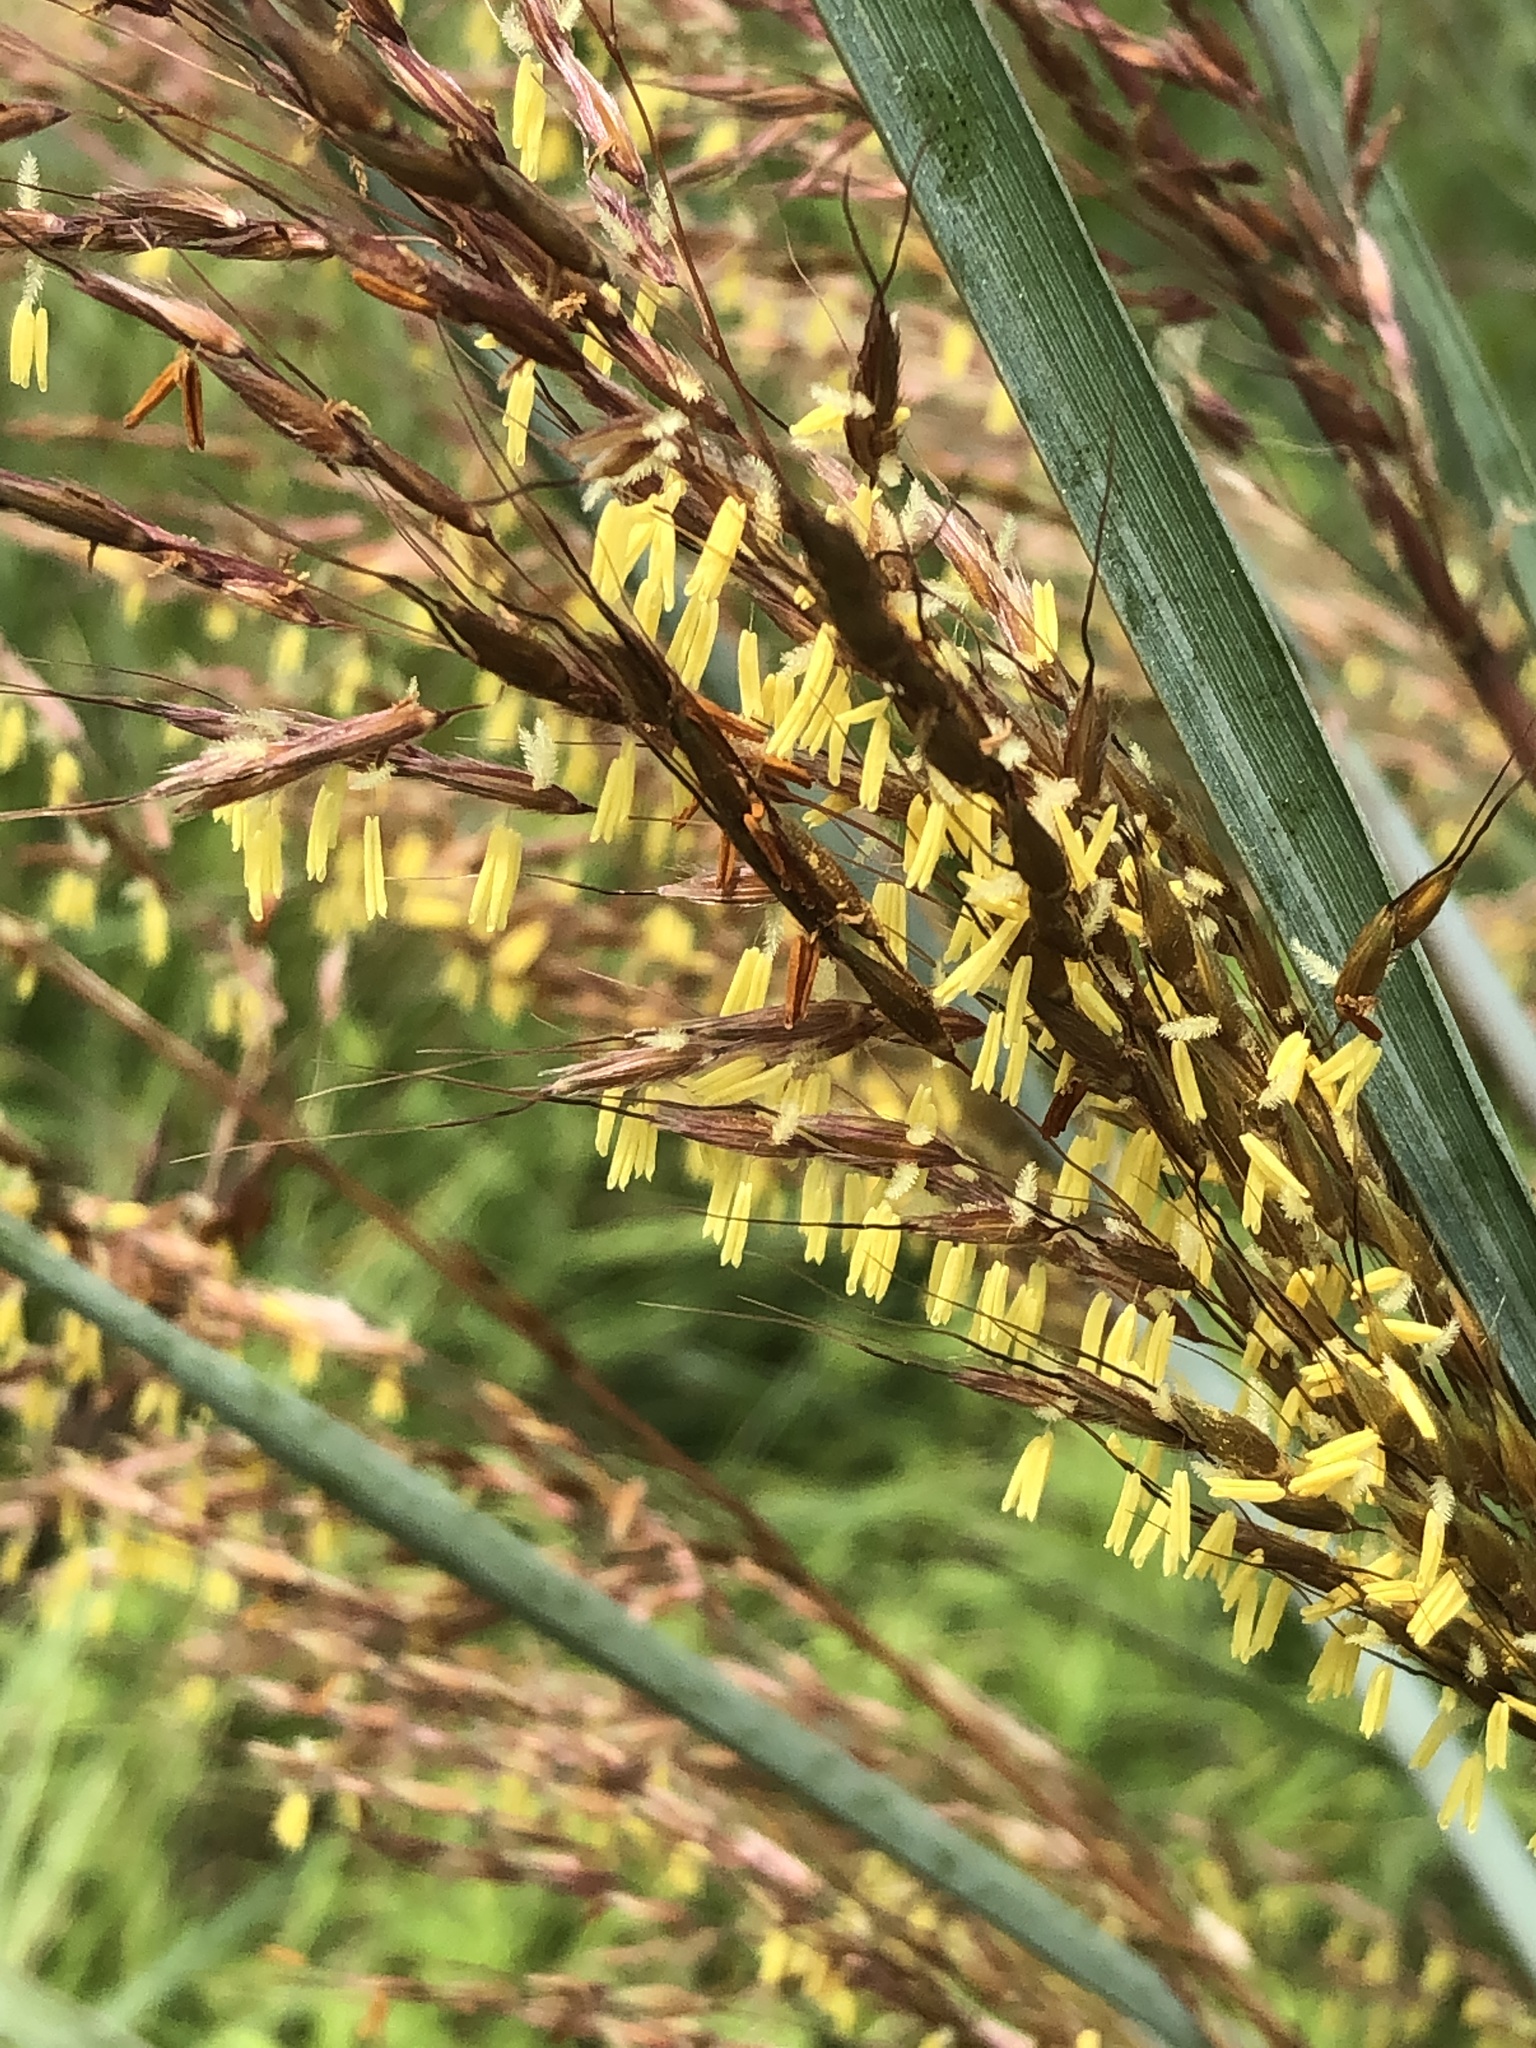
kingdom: Plantae
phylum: Tracheophyta
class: Liliopsida
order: Poales
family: Poaceae
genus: Sorghastrum
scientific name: Sorghastrum nutans
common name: Indian grass
